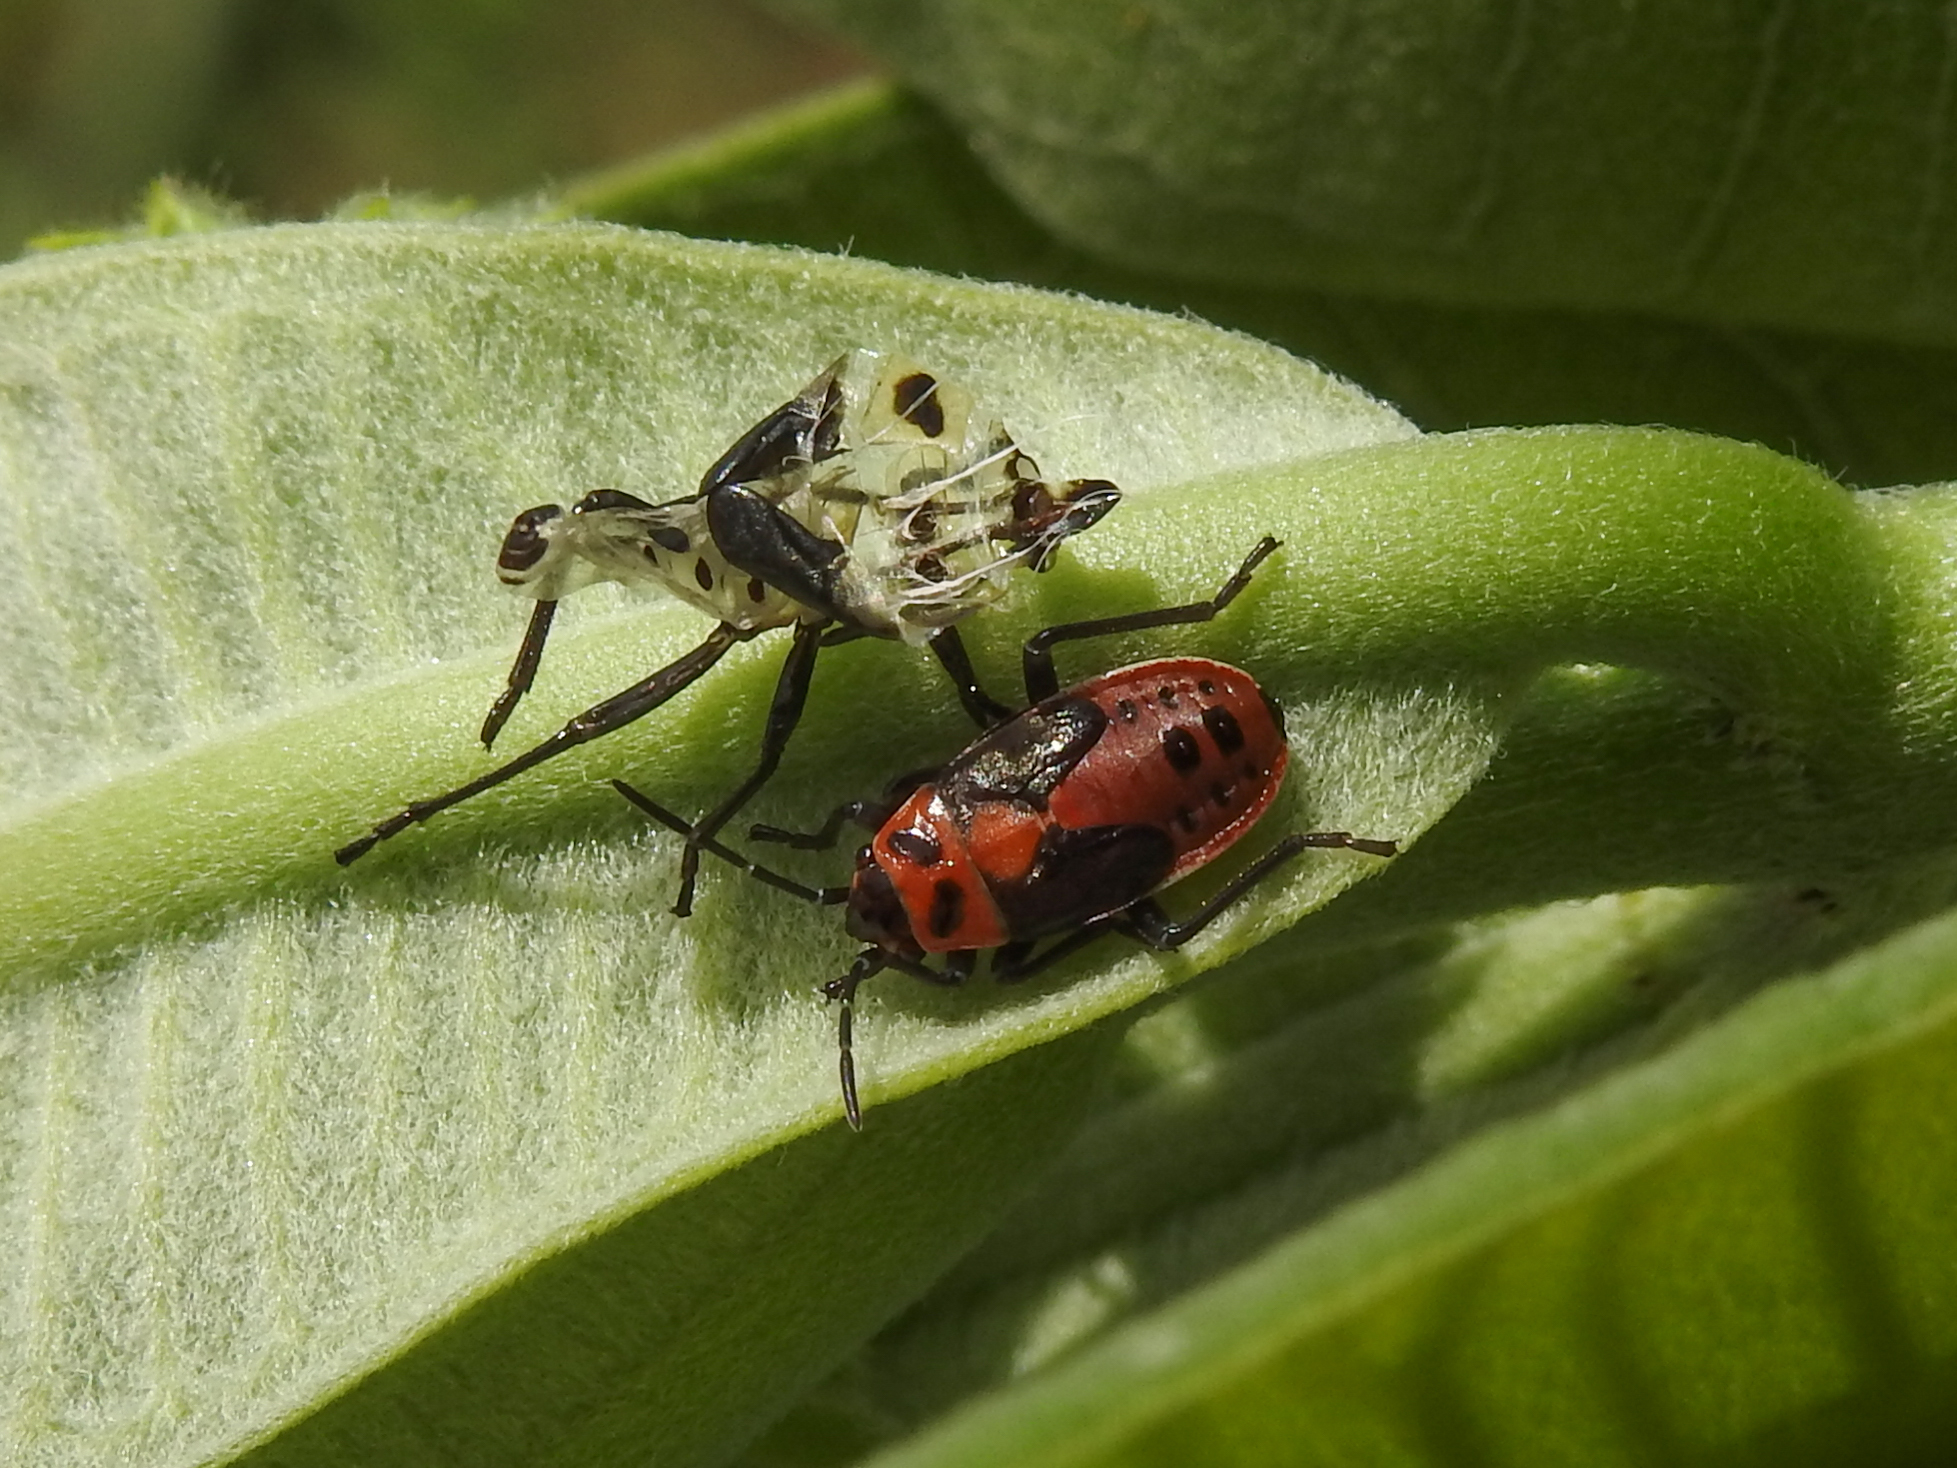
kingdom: Animalia
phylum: Arthropoda
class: Insecta
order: Hemiptera
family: Lygaeidae
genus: Lygaeus
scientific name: Lygaeus kalmii
